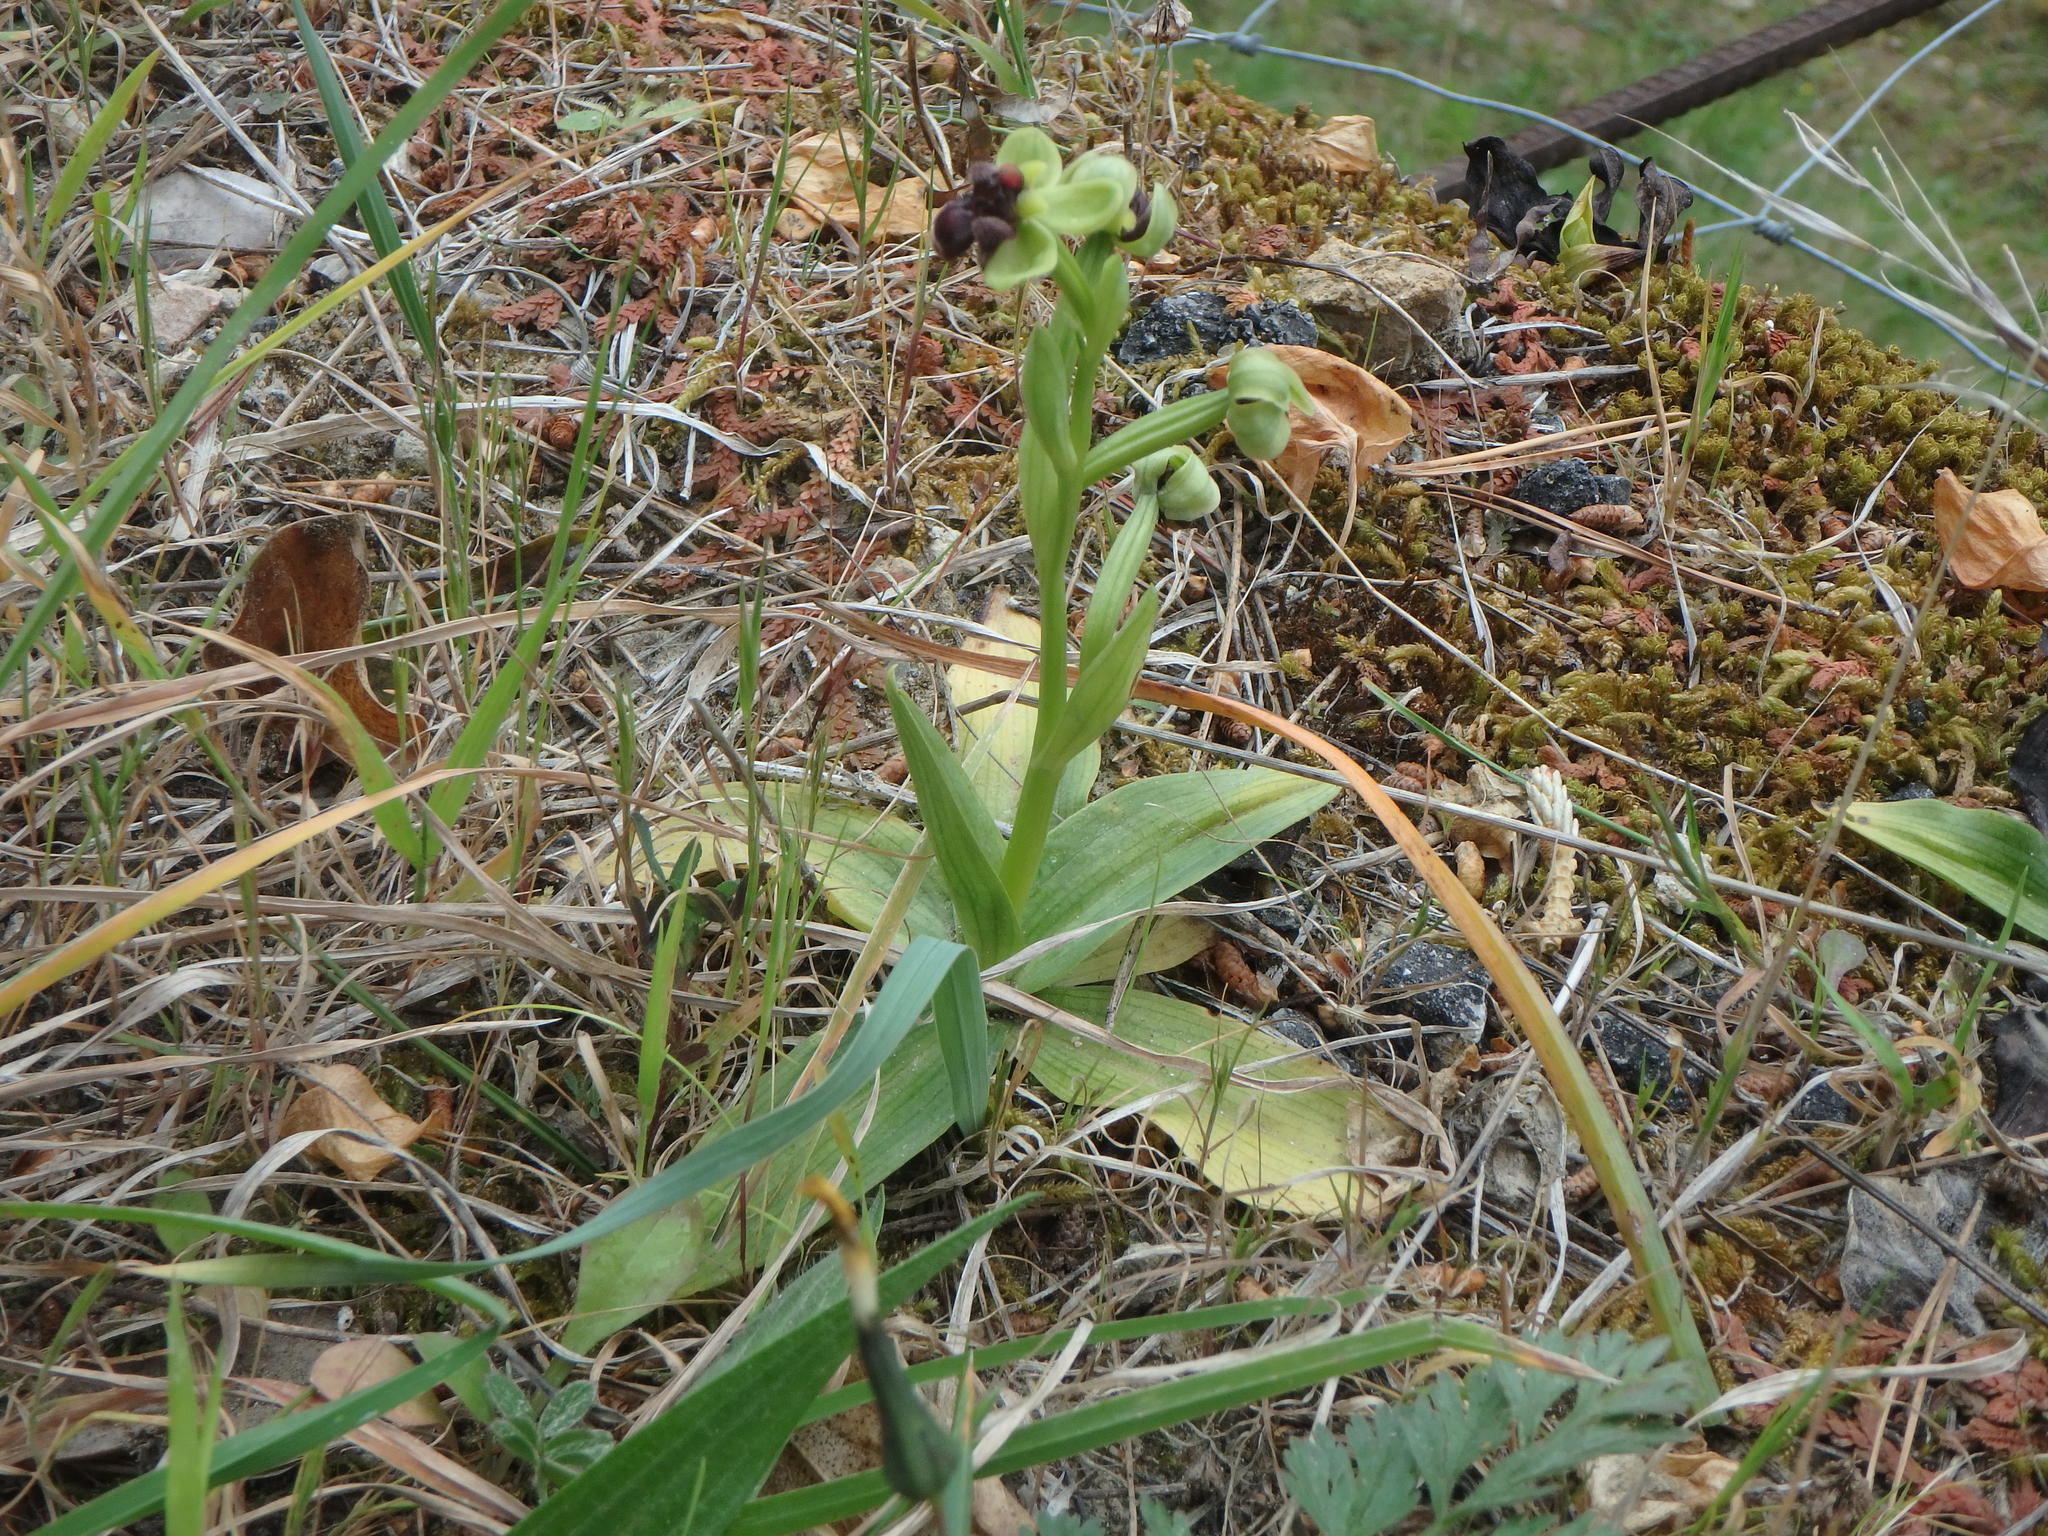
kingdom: Plantae
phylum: Tracheophyta
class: Liliopsida
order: Asparagales
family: Orchidaceae
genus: Ophrys
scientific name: Ophrys bombyliflora
